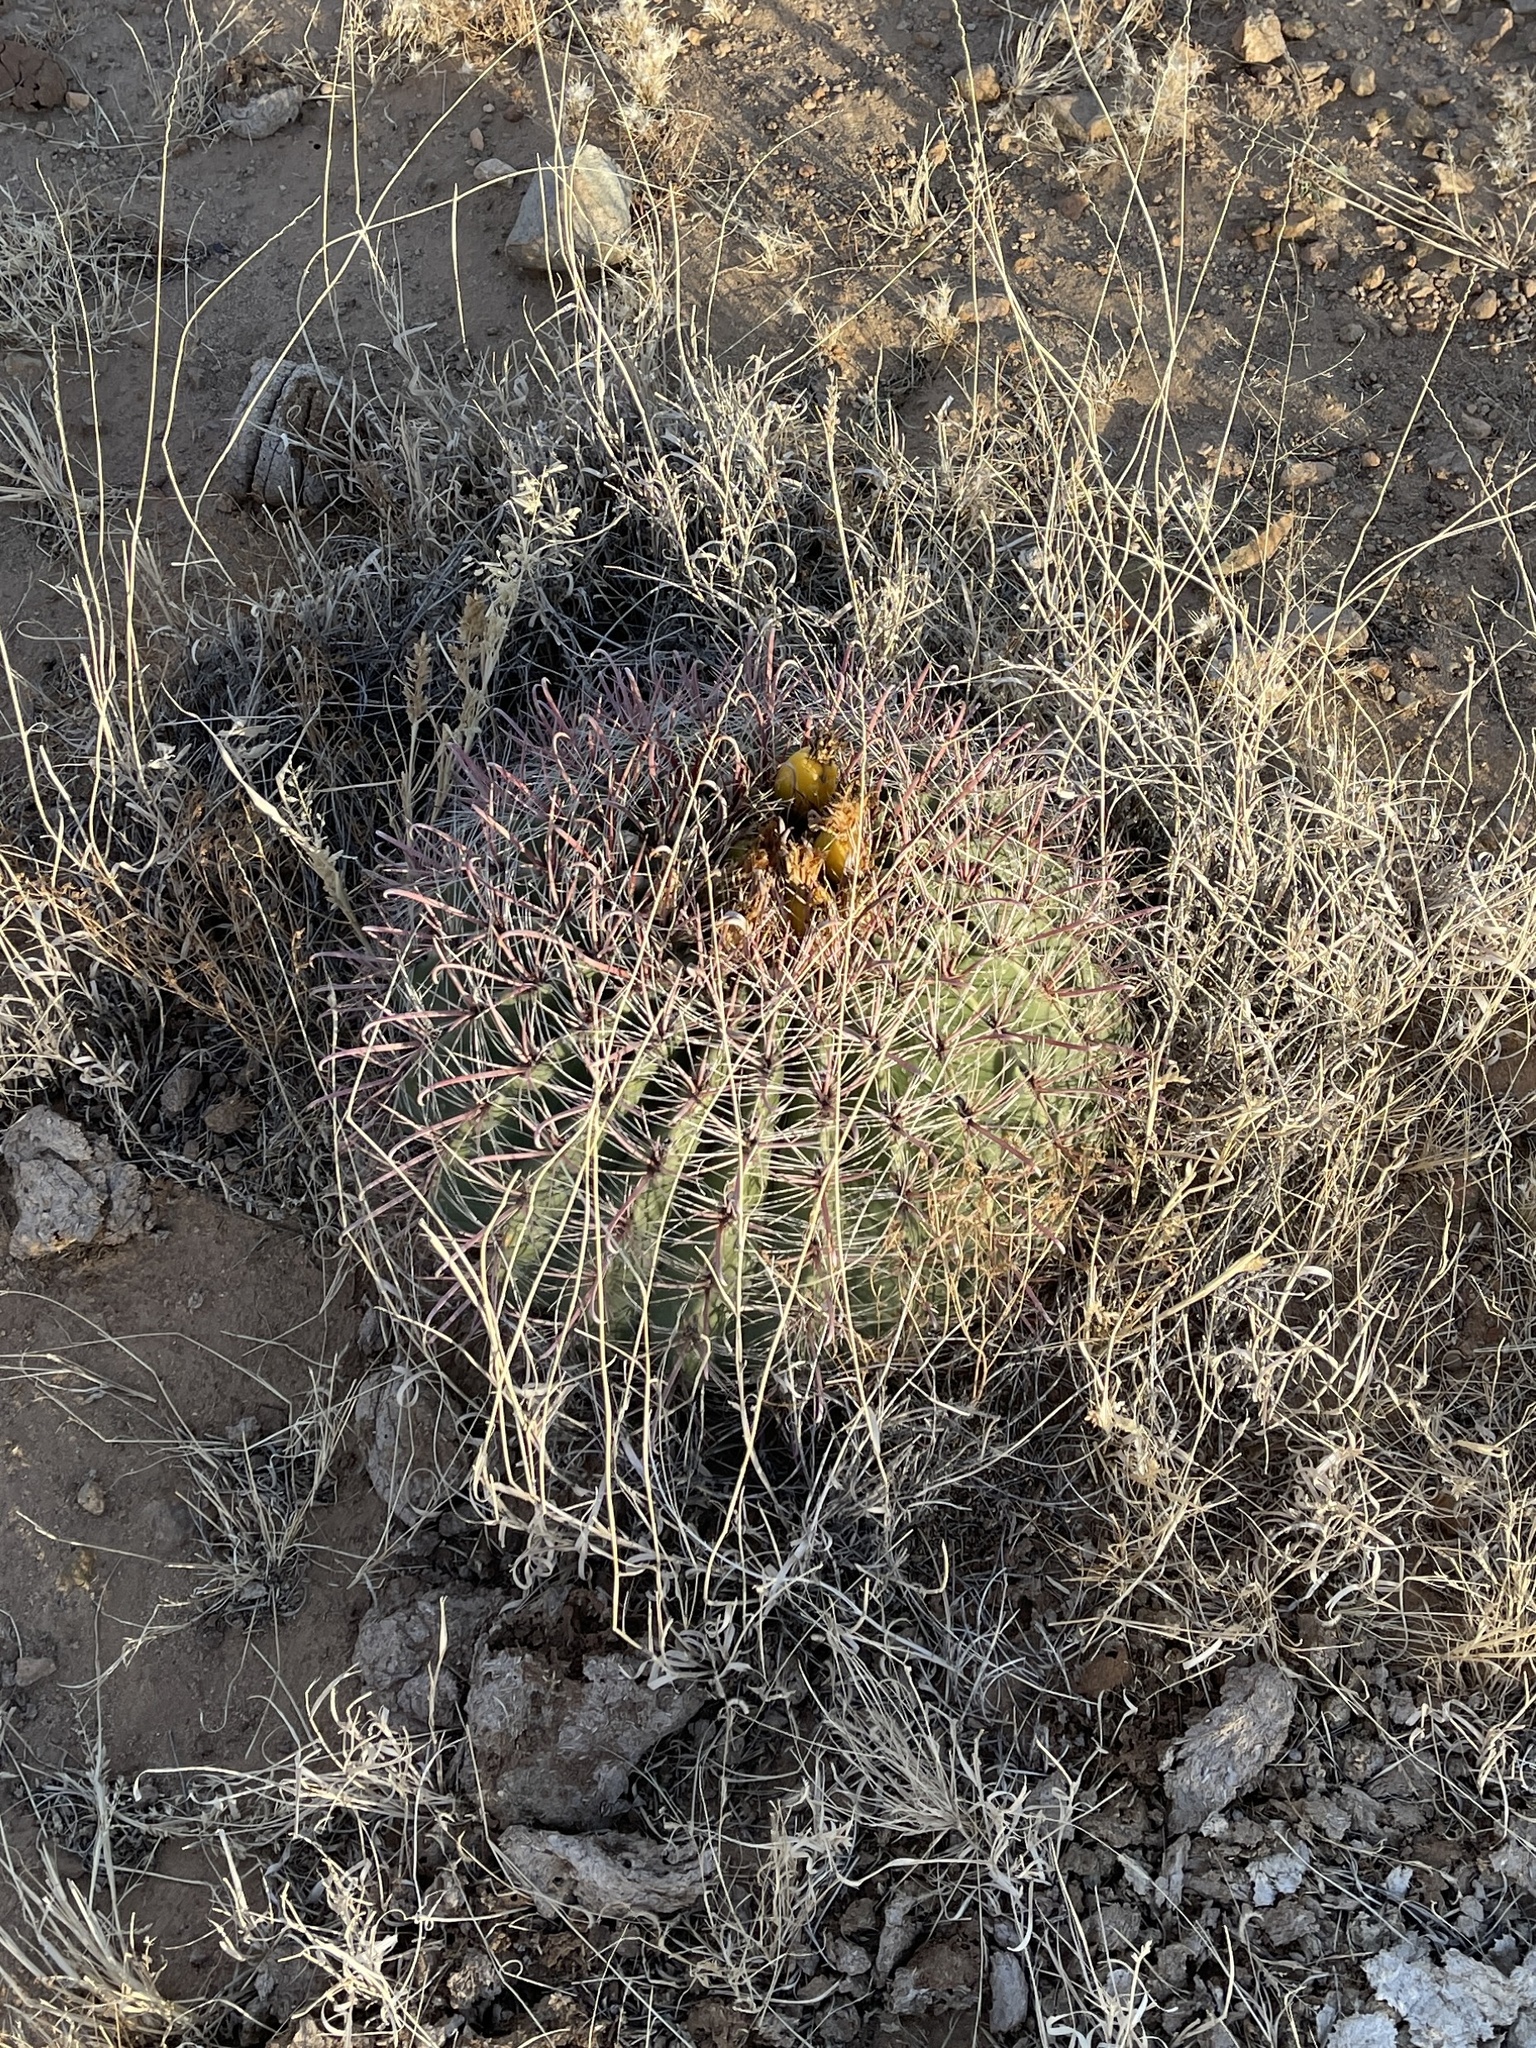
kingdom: Plantae
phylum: Tracheophyta
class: Magnoliopsida
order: Caryophyllales
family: Cactaceae
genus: Ferocactus
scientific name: Ferocactus wislizeni
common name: Candy barrel cactus
